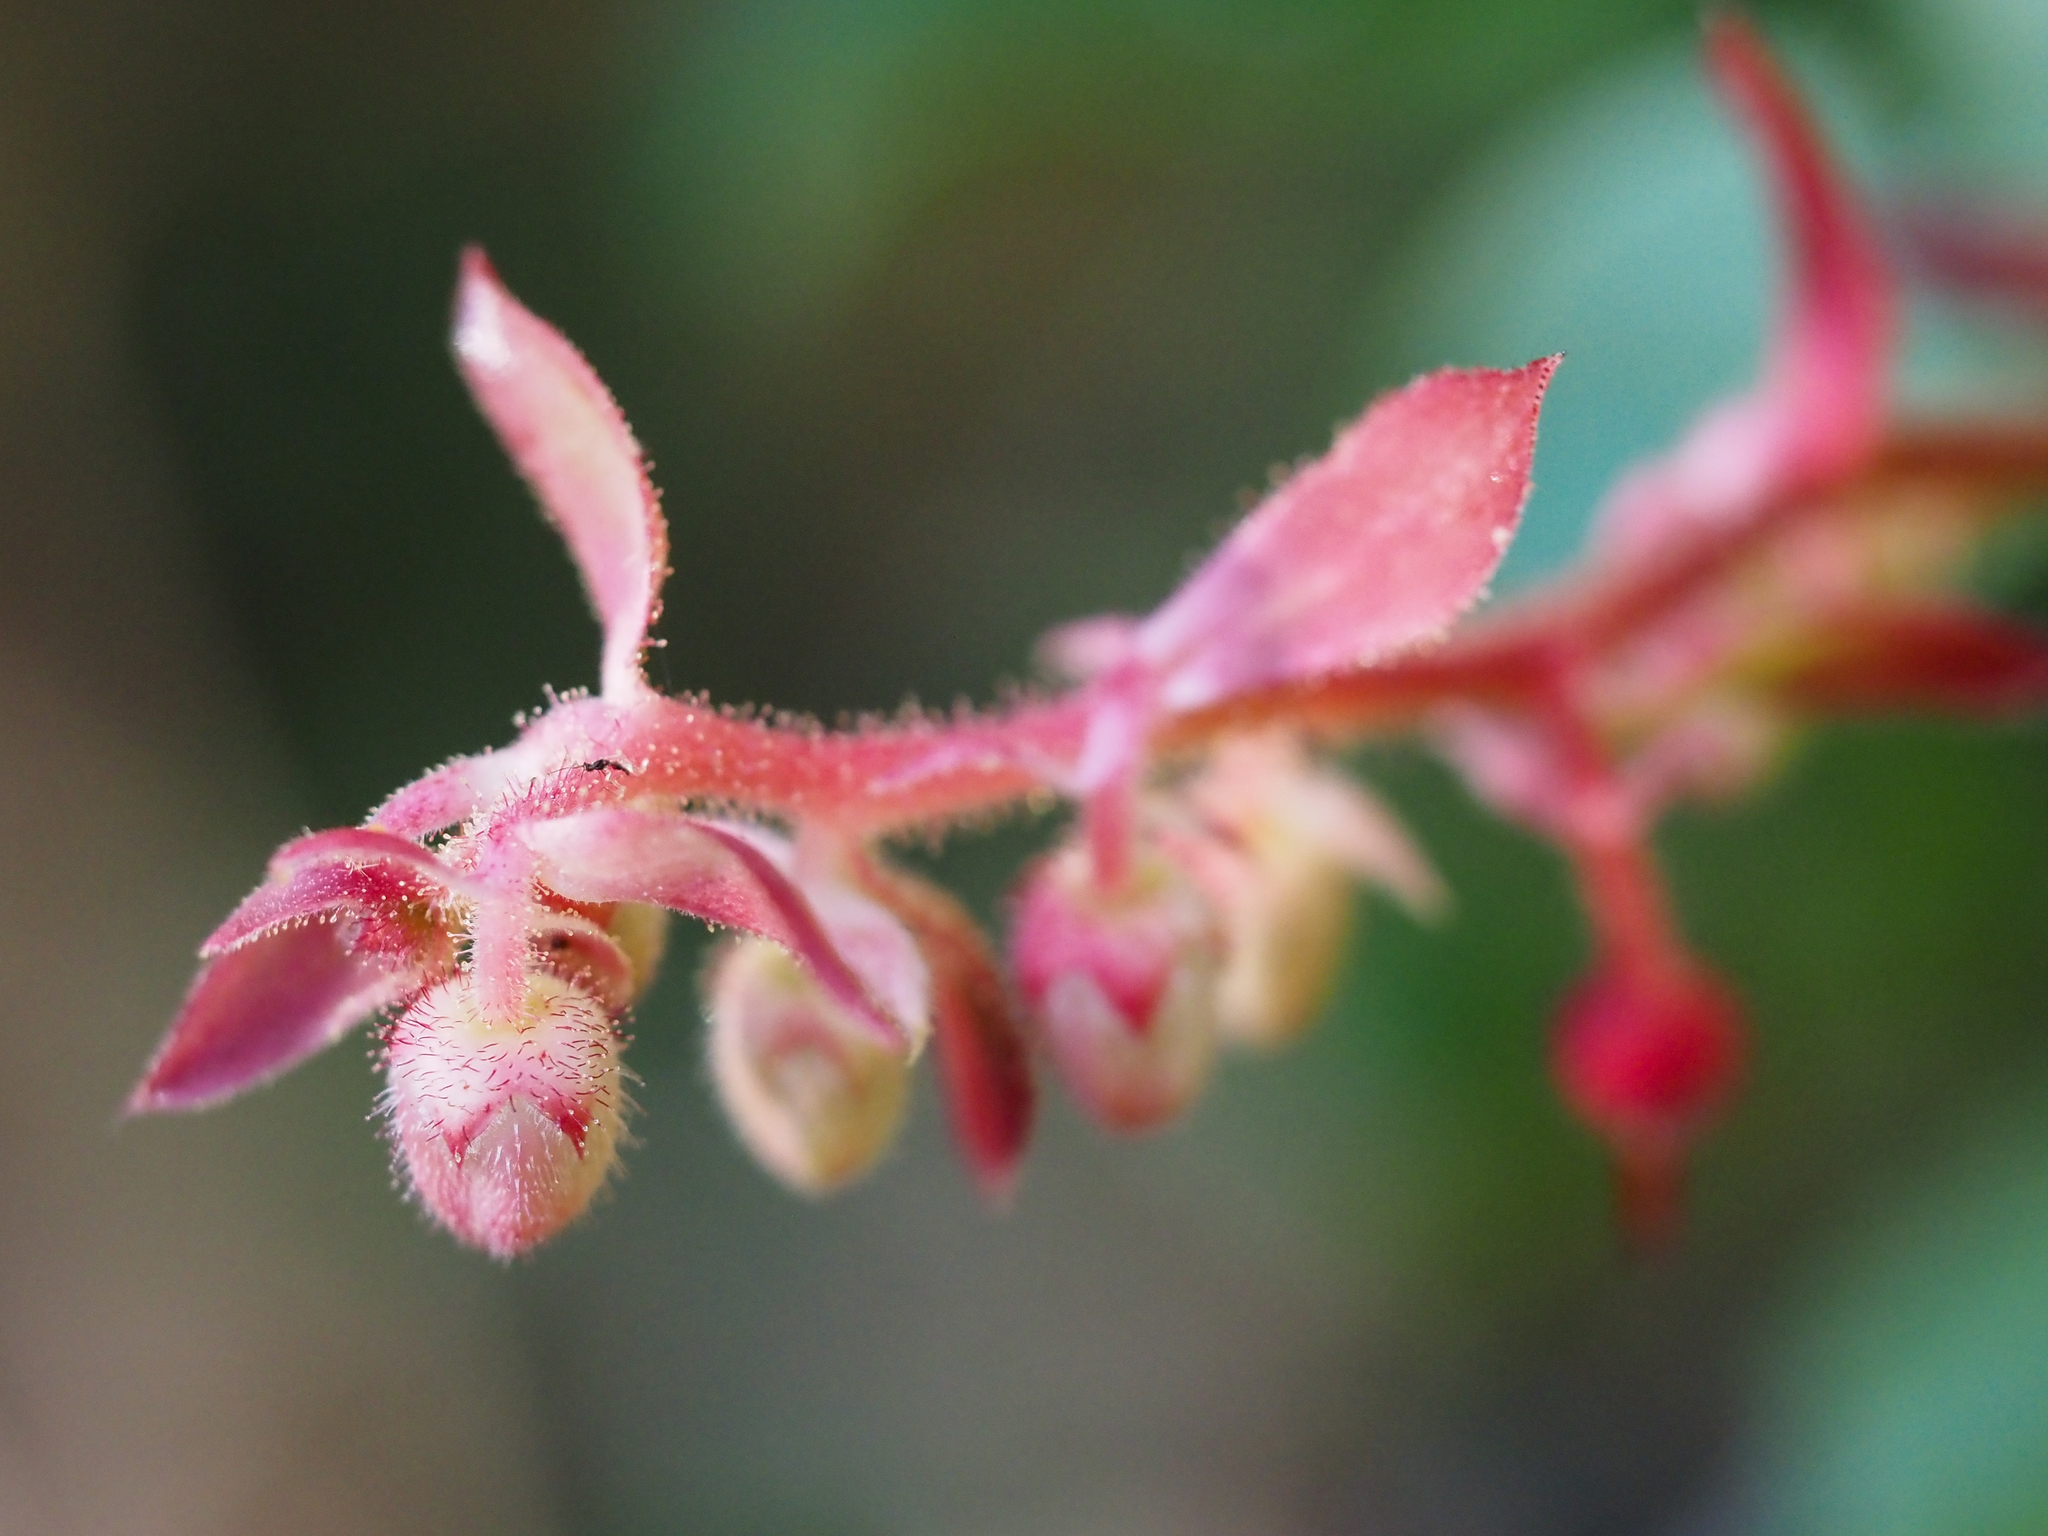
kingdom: Plantae
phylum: Tracheophyta
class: Magnoliopsida
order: Ericales
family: Ericaceae
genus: Gaultheria
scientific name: Gaultheria shallon
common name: Shallon
